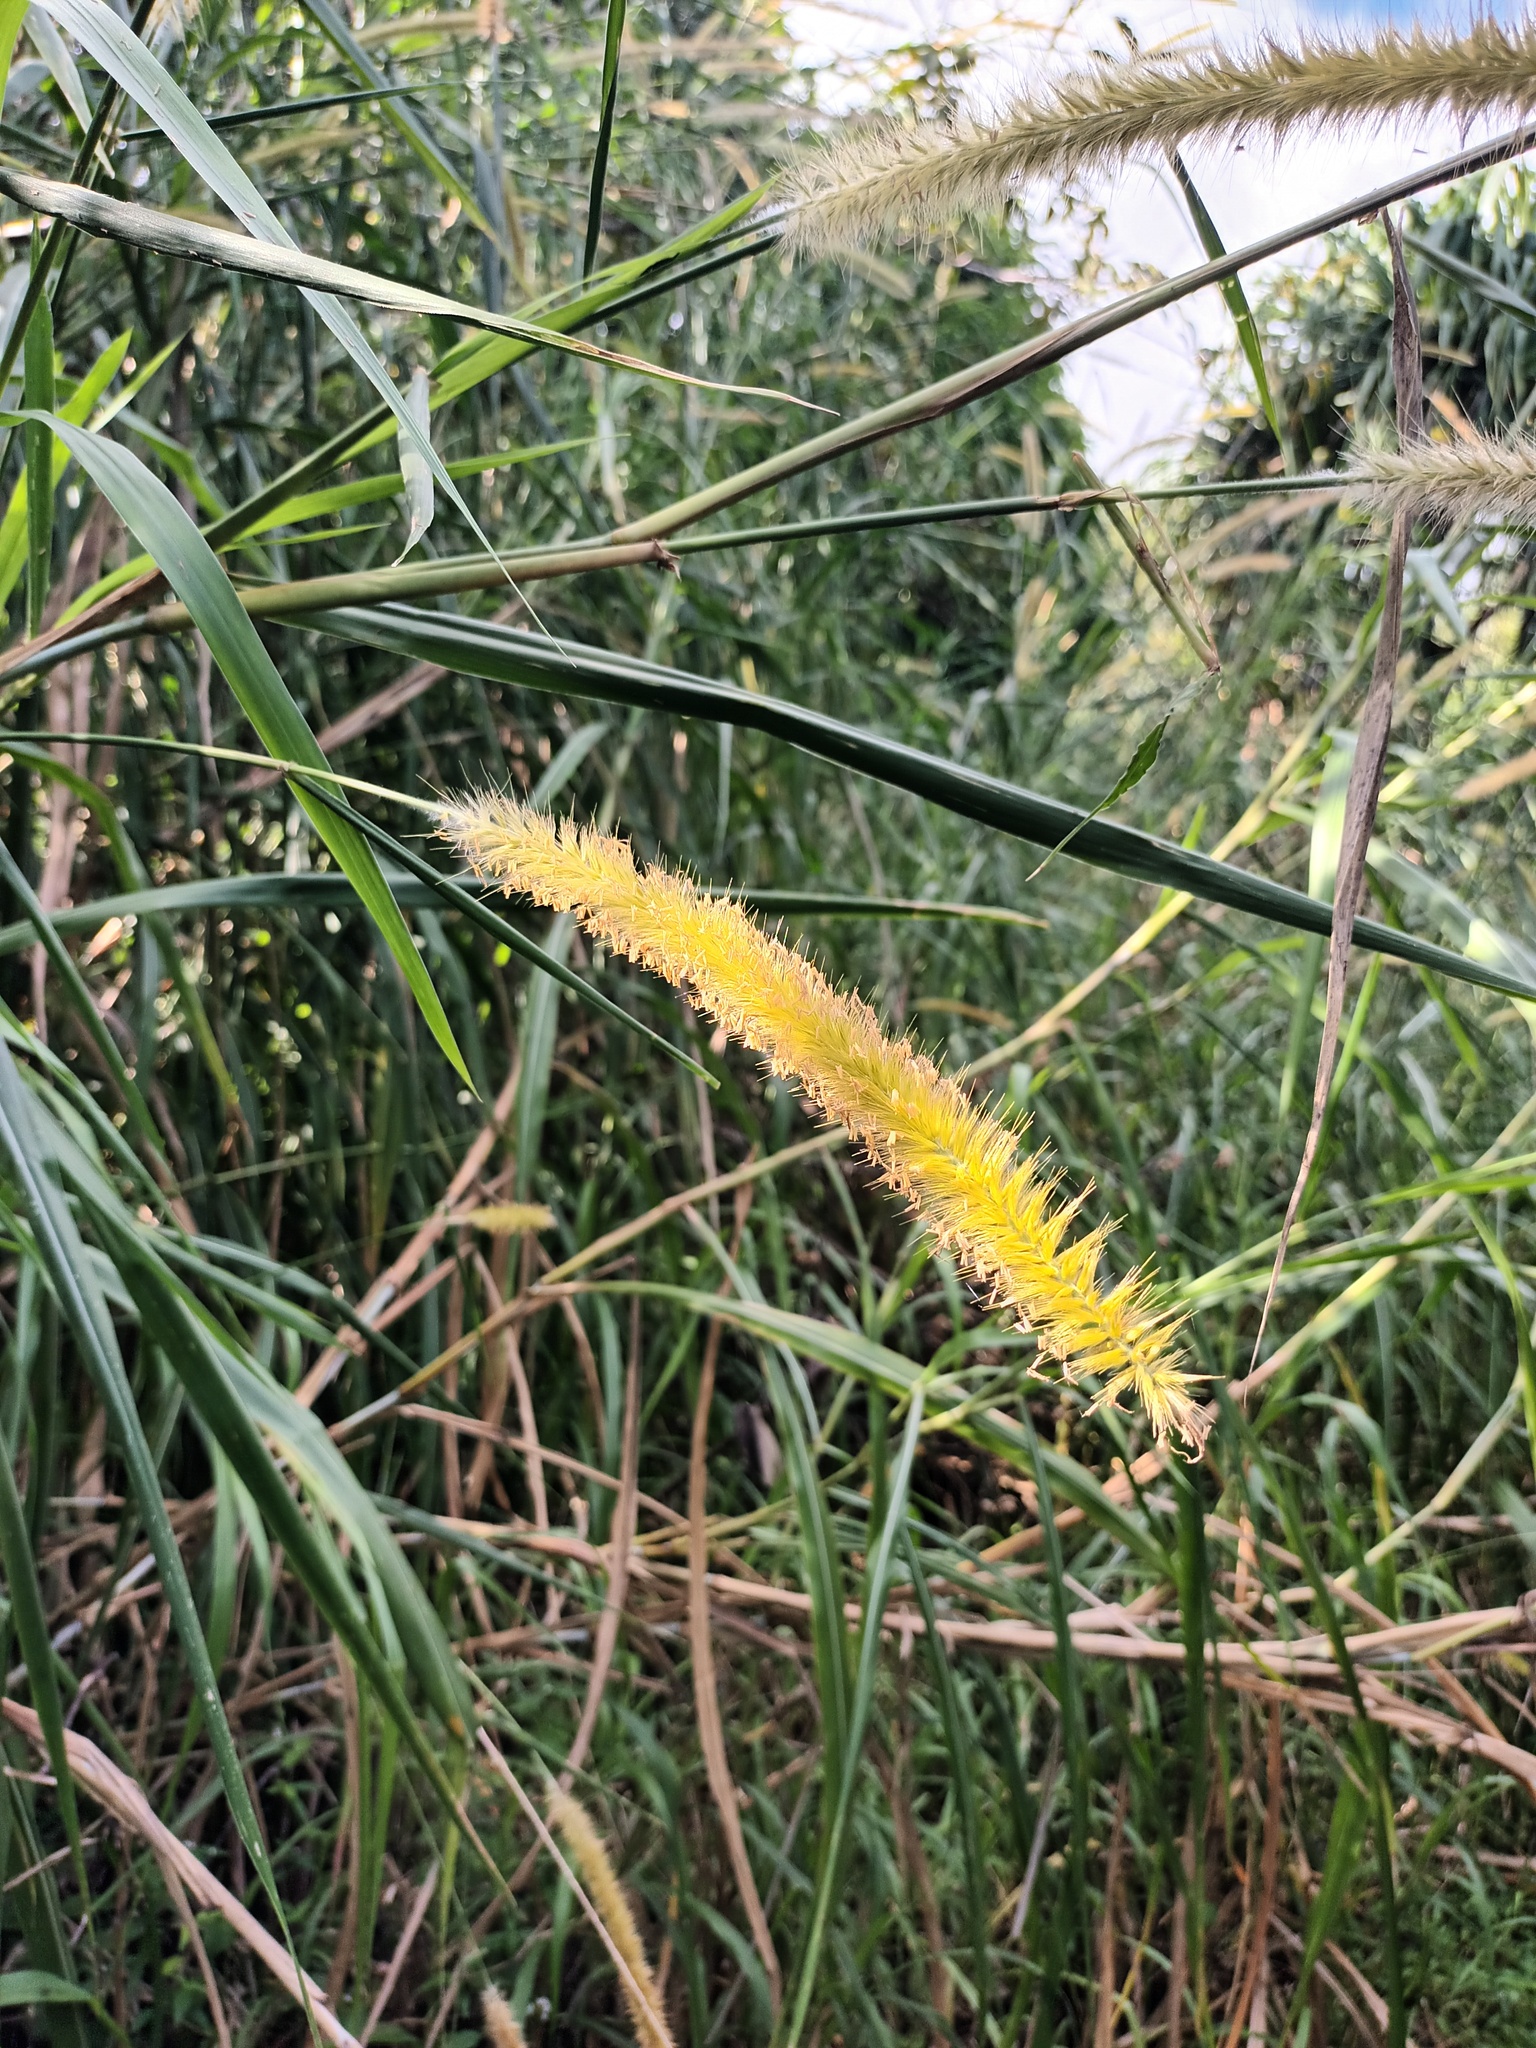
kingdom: Plantae
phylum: Tracheophyta
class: Liliopsida
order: Poales
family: Poaceae
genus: Cenchrus
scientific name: Cenchrus purpureus
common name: Elephant grass
